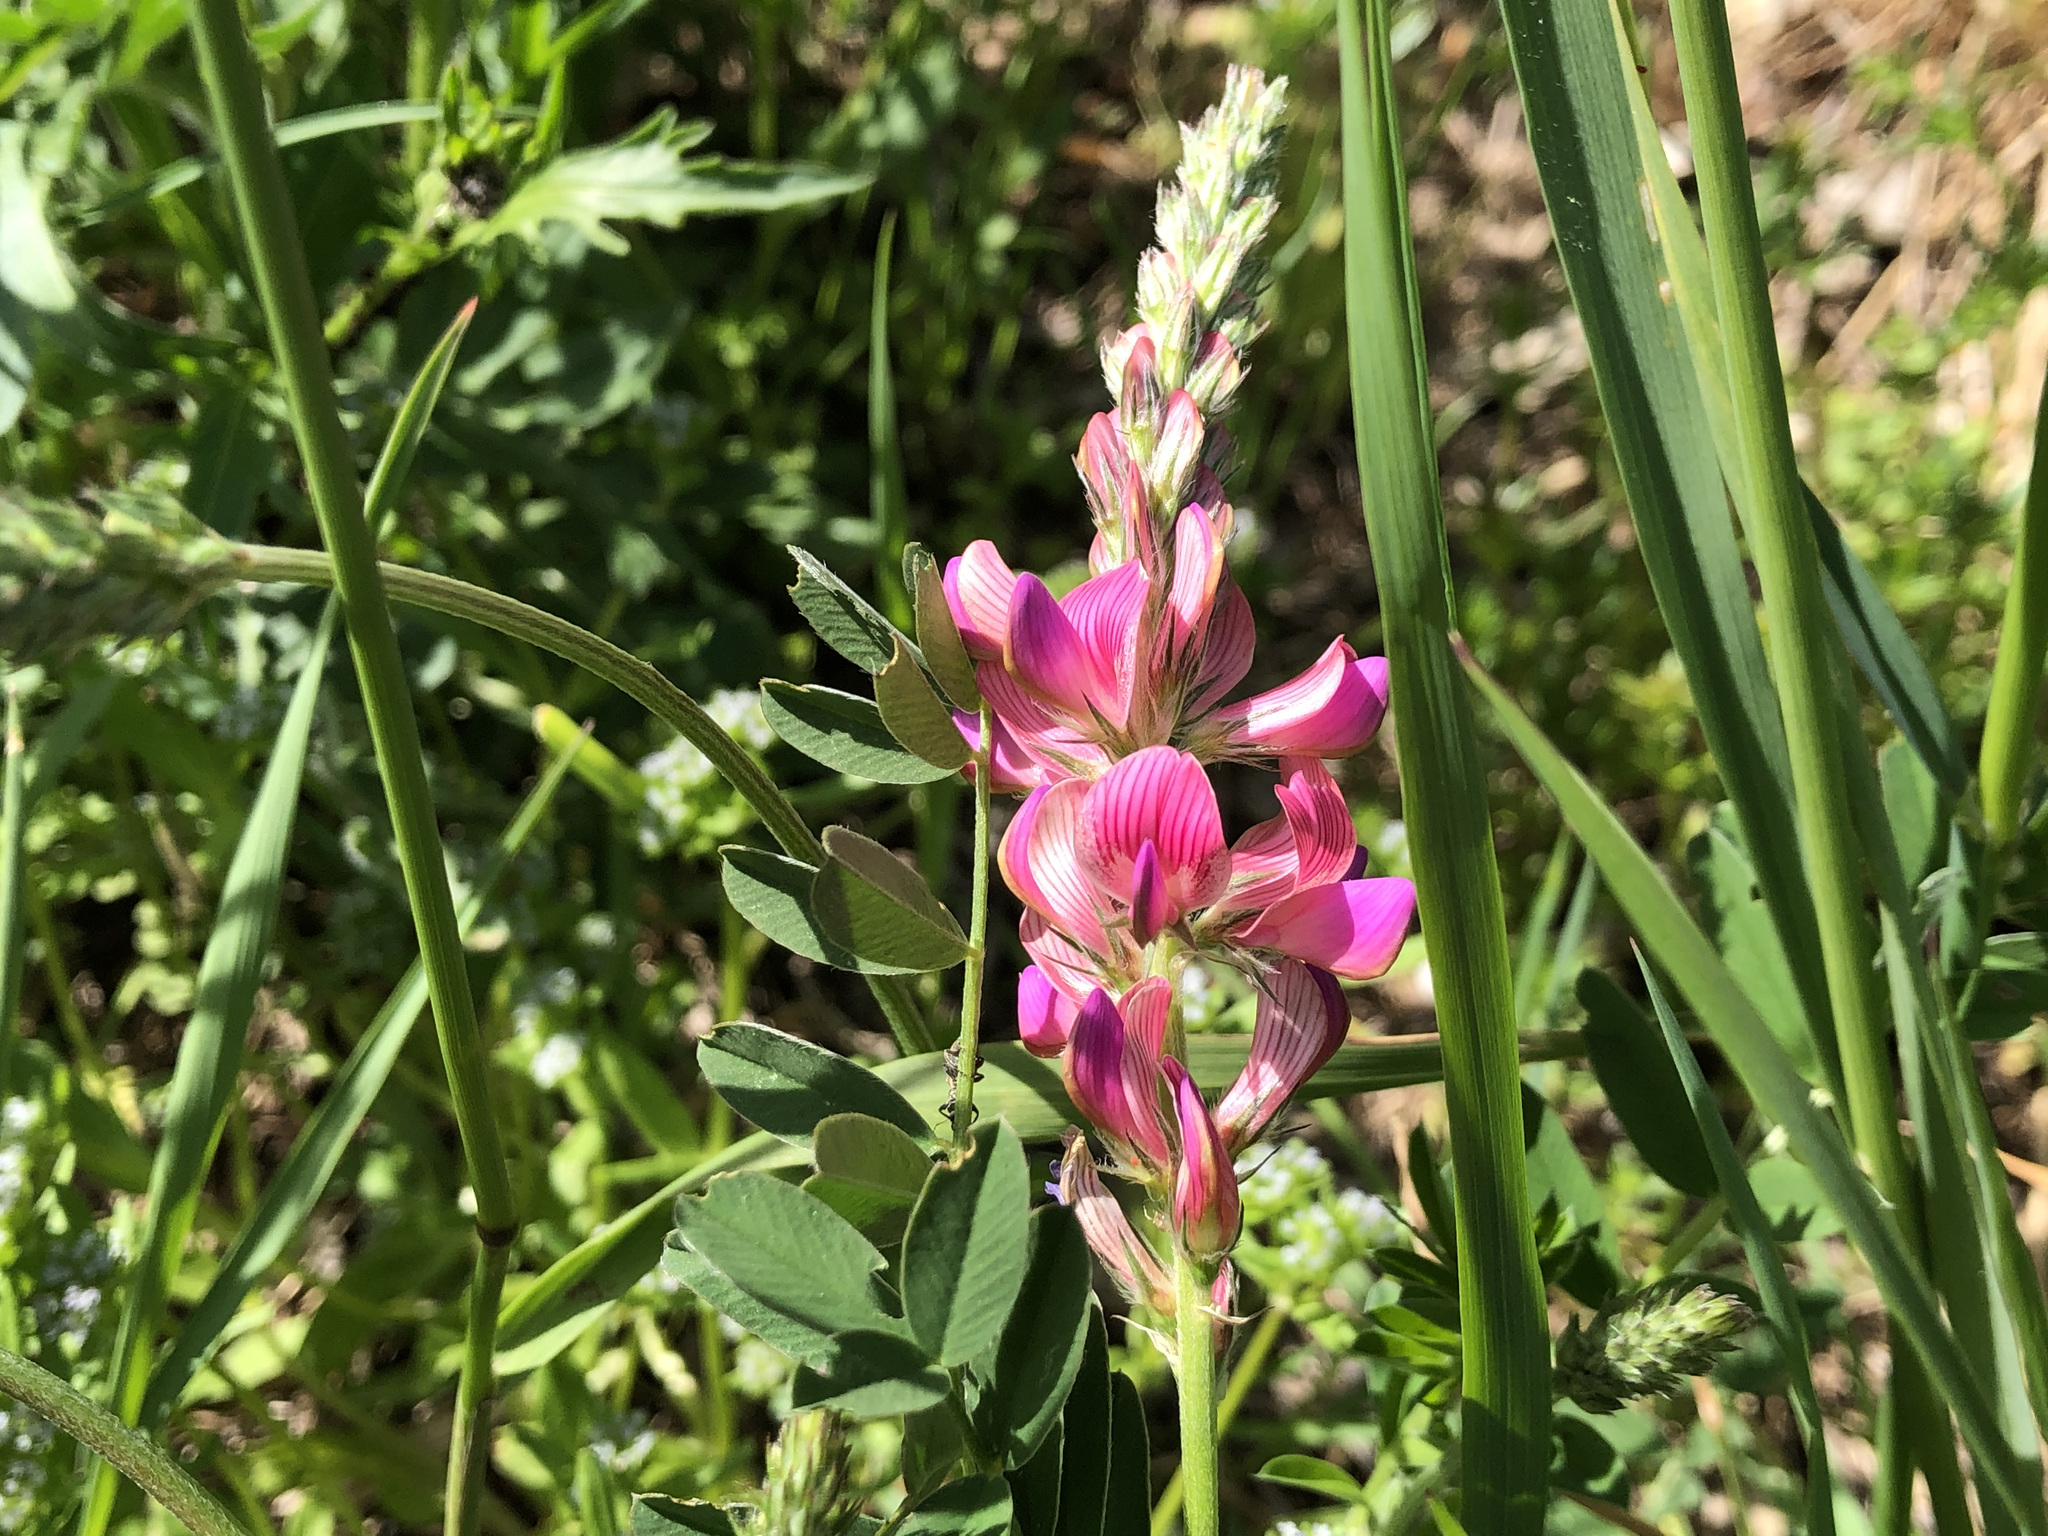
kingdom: Plantae
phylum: Tracheophyta
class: Magnoliopsida
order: Fabales
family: Fabaceae
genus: Onobrychis
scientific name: Onobrychis viciifolia
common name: Sainfoin
